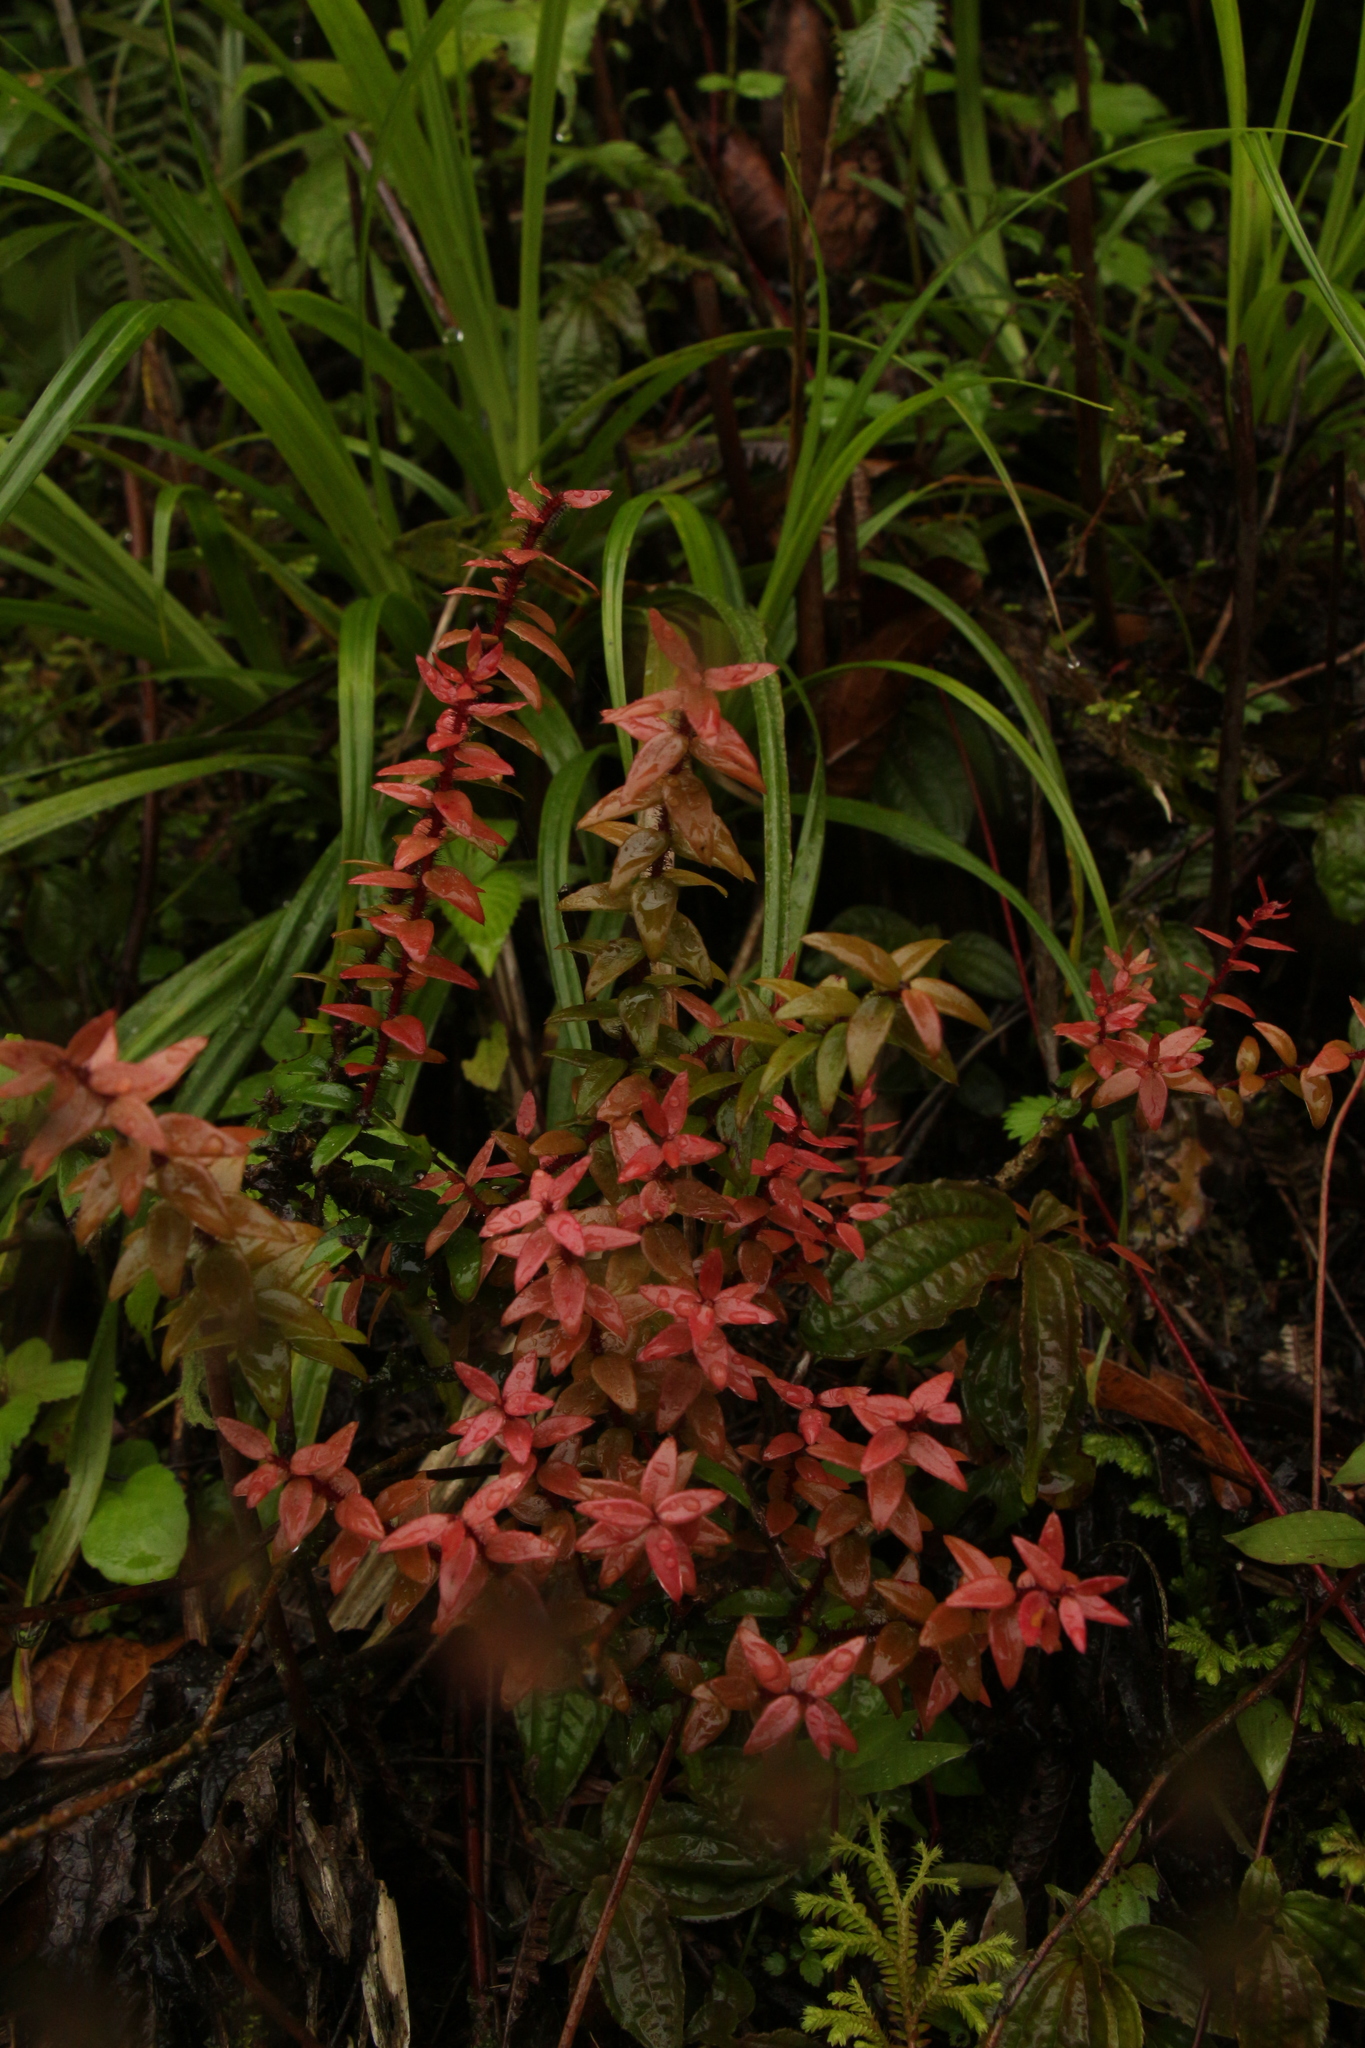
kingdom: Plantae
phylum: Tracheophyta
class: Magnoliopsida
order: Ericales
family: Ericaceae
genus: Agapetes
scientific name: Agapetes serpens
